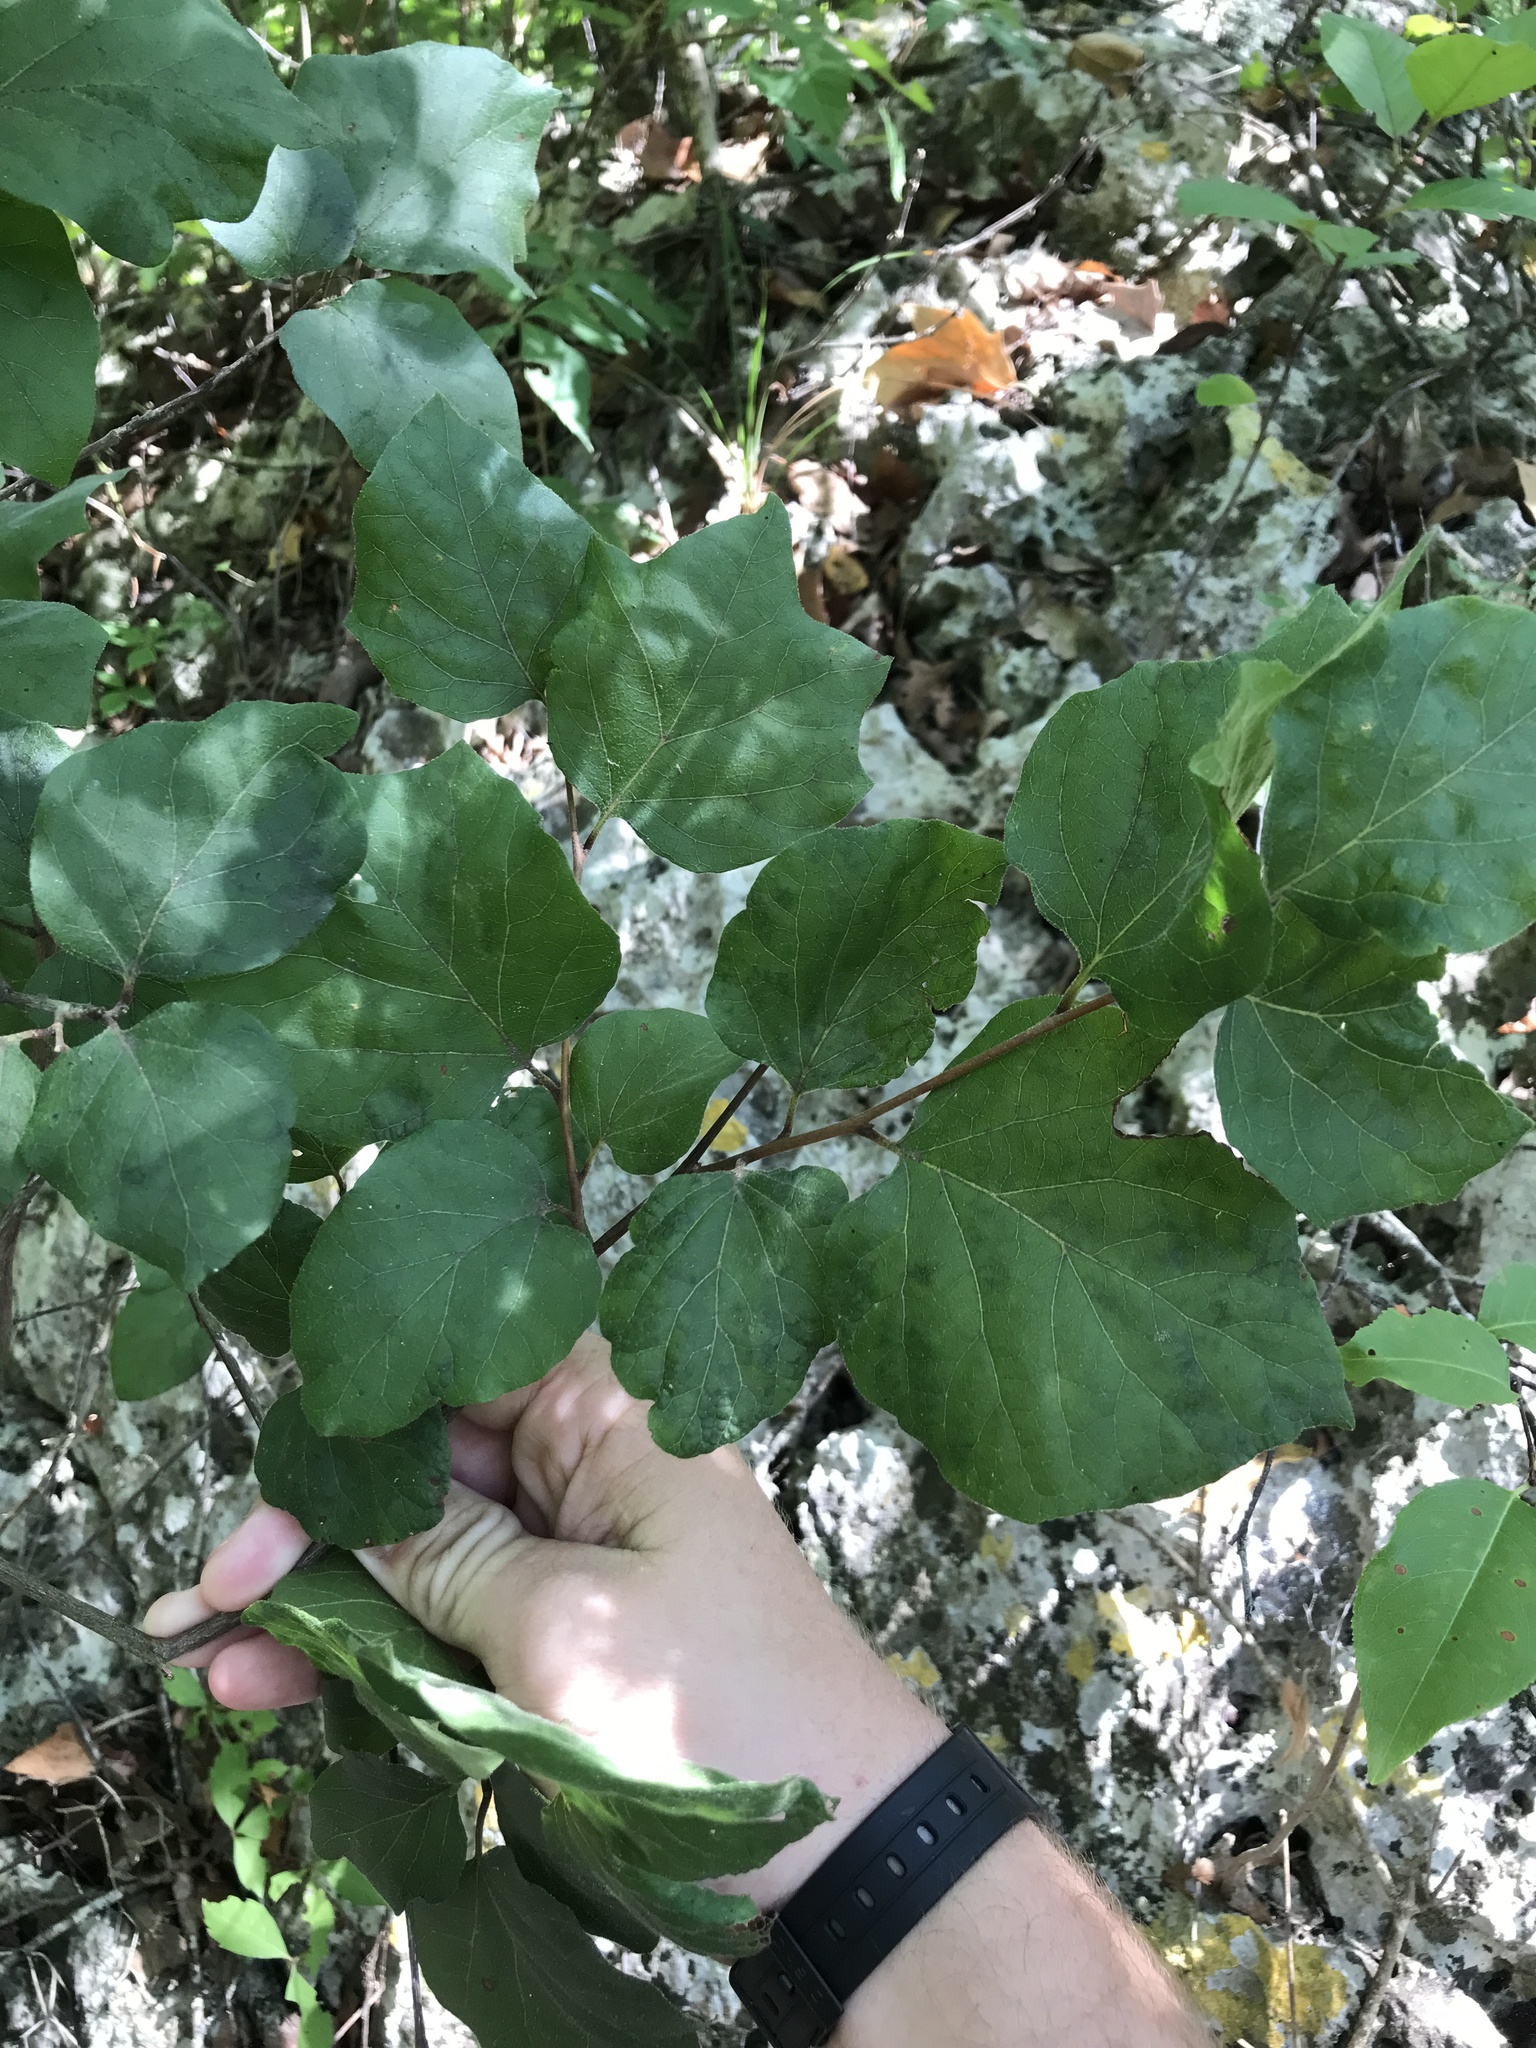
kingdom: Plantae
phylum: Tracheophyta
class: Magnoliopsida
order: Ericales
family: Styracaceae
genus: Styrax
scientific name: Styrax platanifolius
